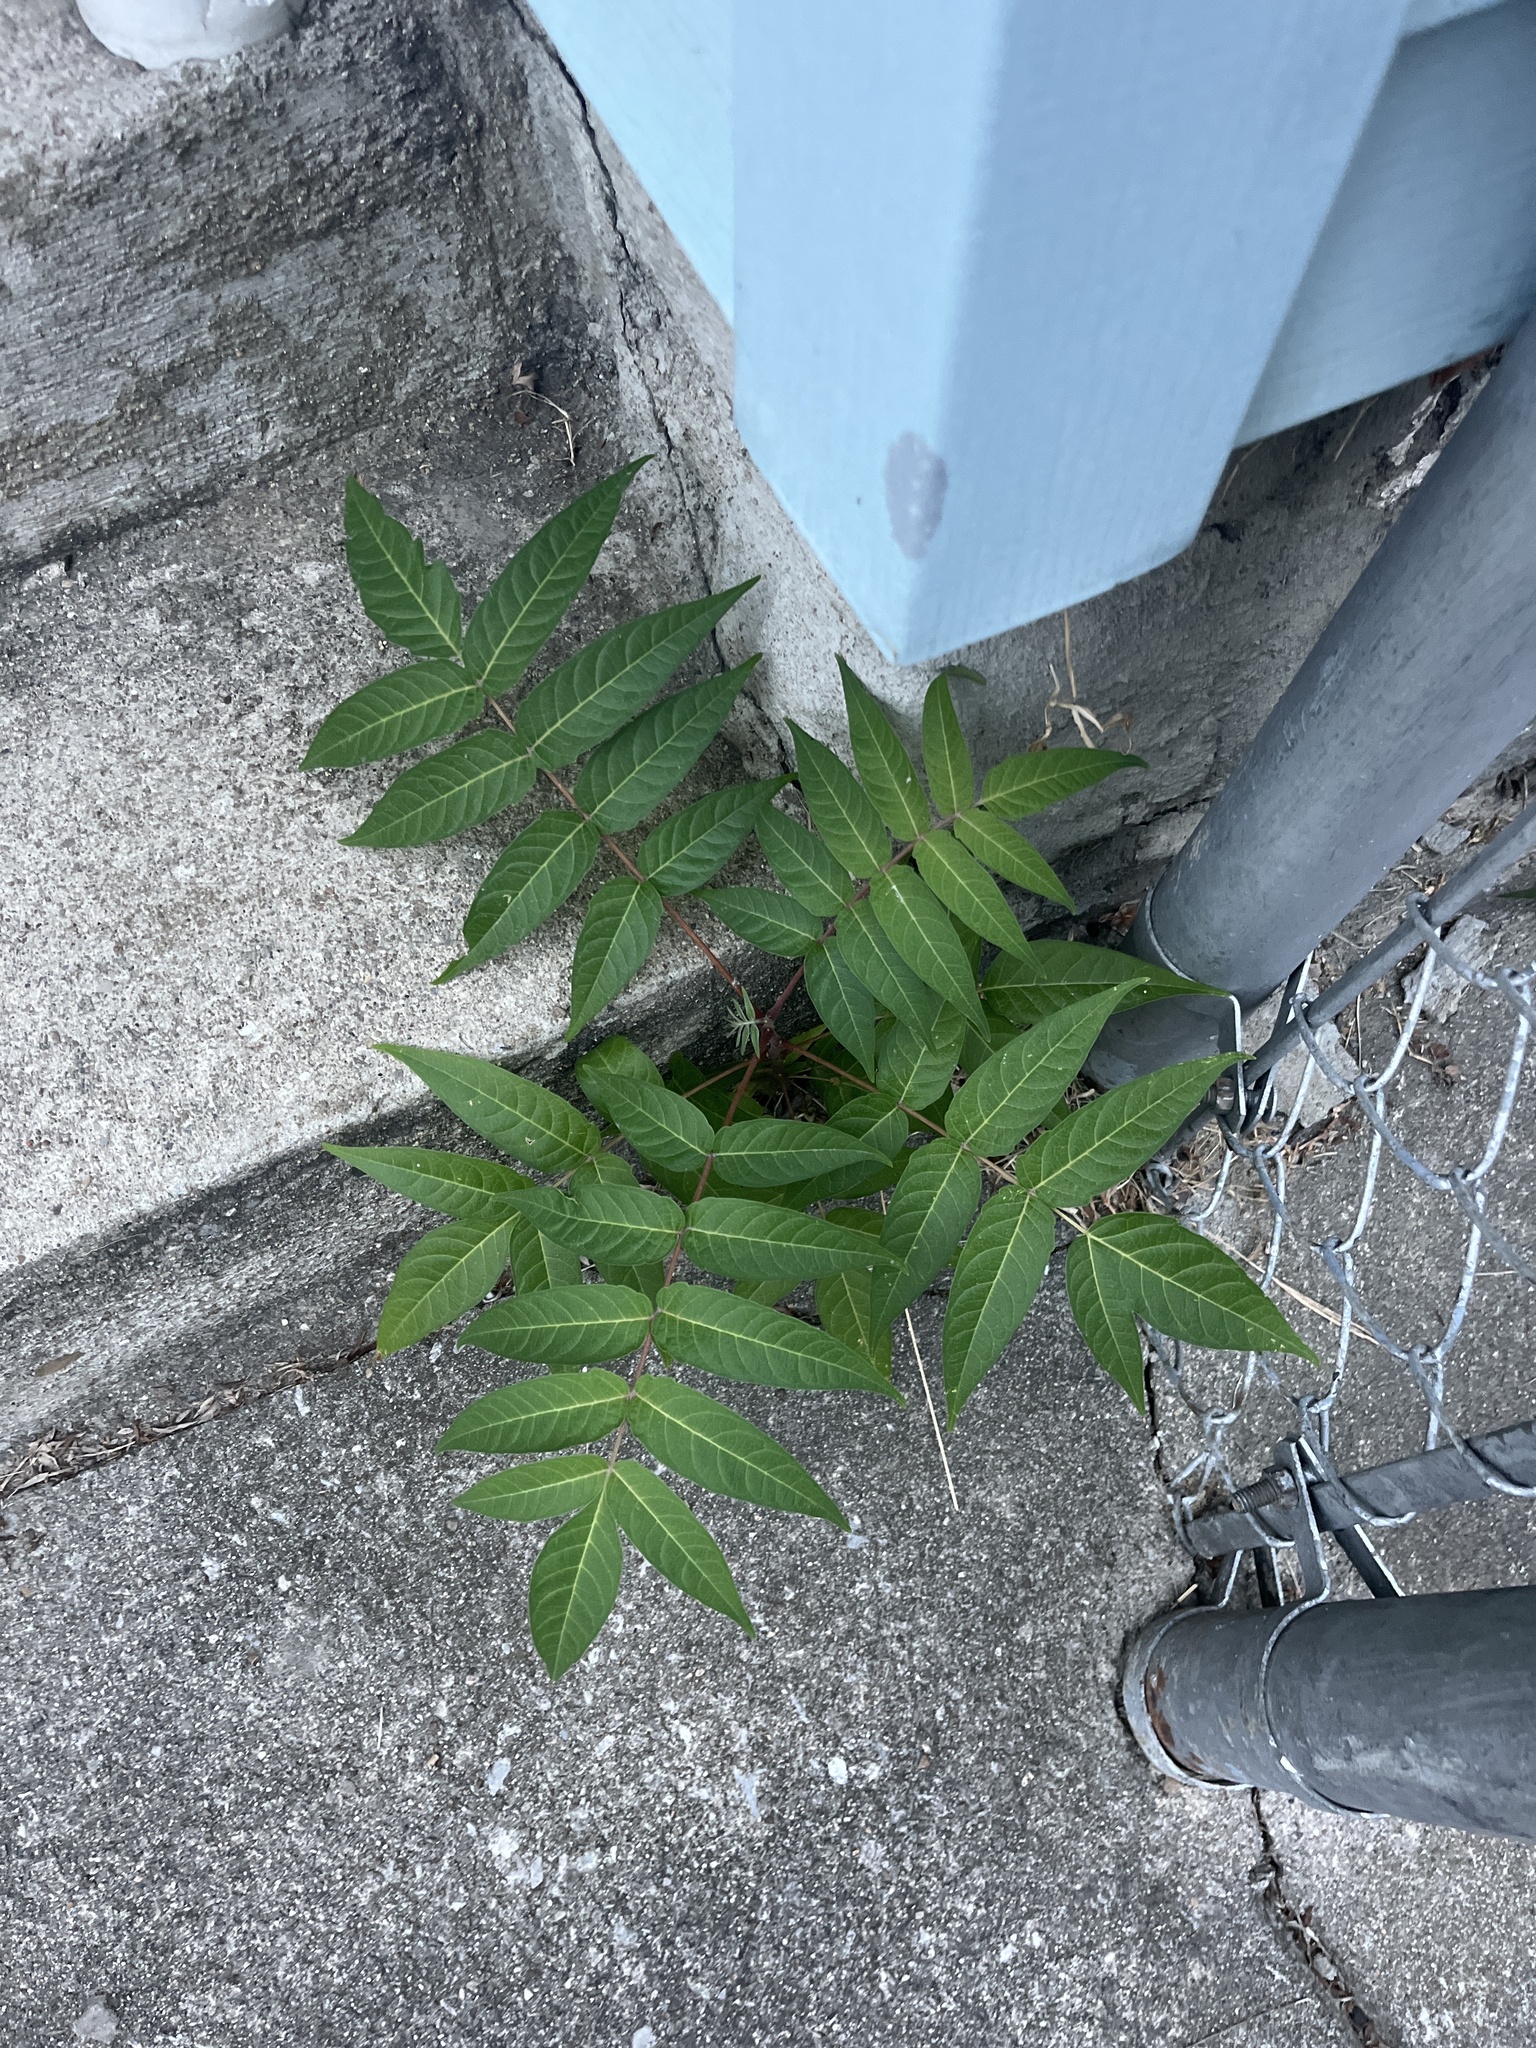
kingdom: Plantae
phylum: Tracheophyta
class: Magnoliopsida
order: Sapindales
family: Simaroubaceae
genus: Ailanthus
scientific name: Ailanthus altissima
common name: Tree-of-heaven
